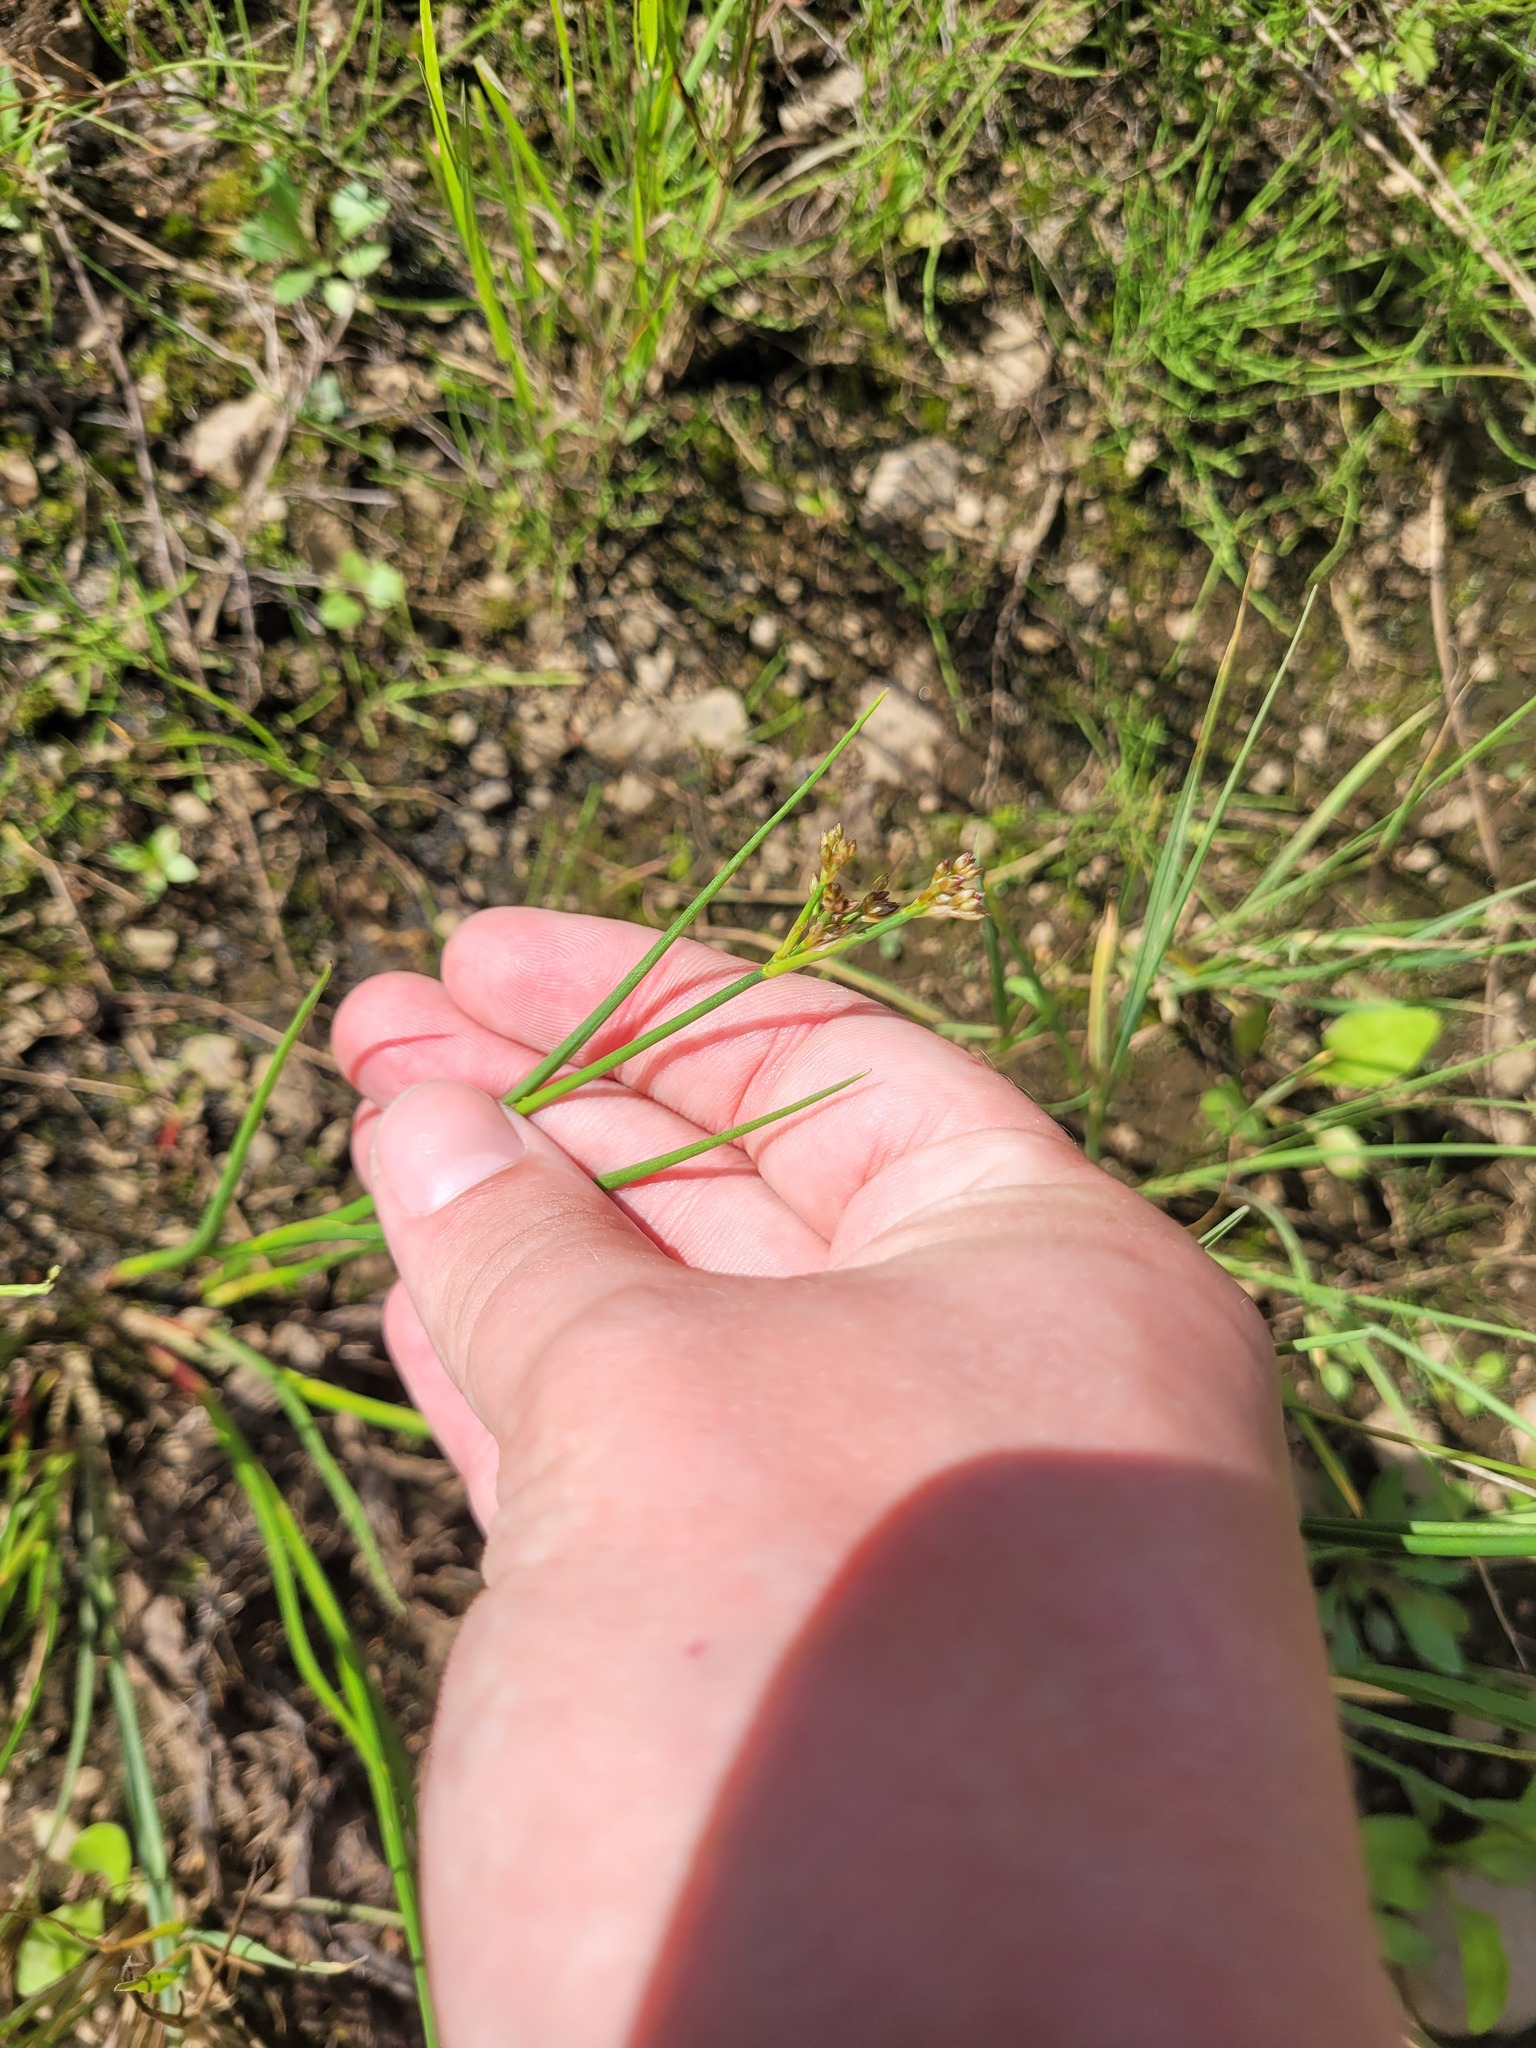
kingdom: Plantae
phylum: Tracheophyta
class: Liliopsida
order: Poales
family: Juncaceae
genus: Juncus
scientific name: Juncus articulatus
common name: Jointed rush
